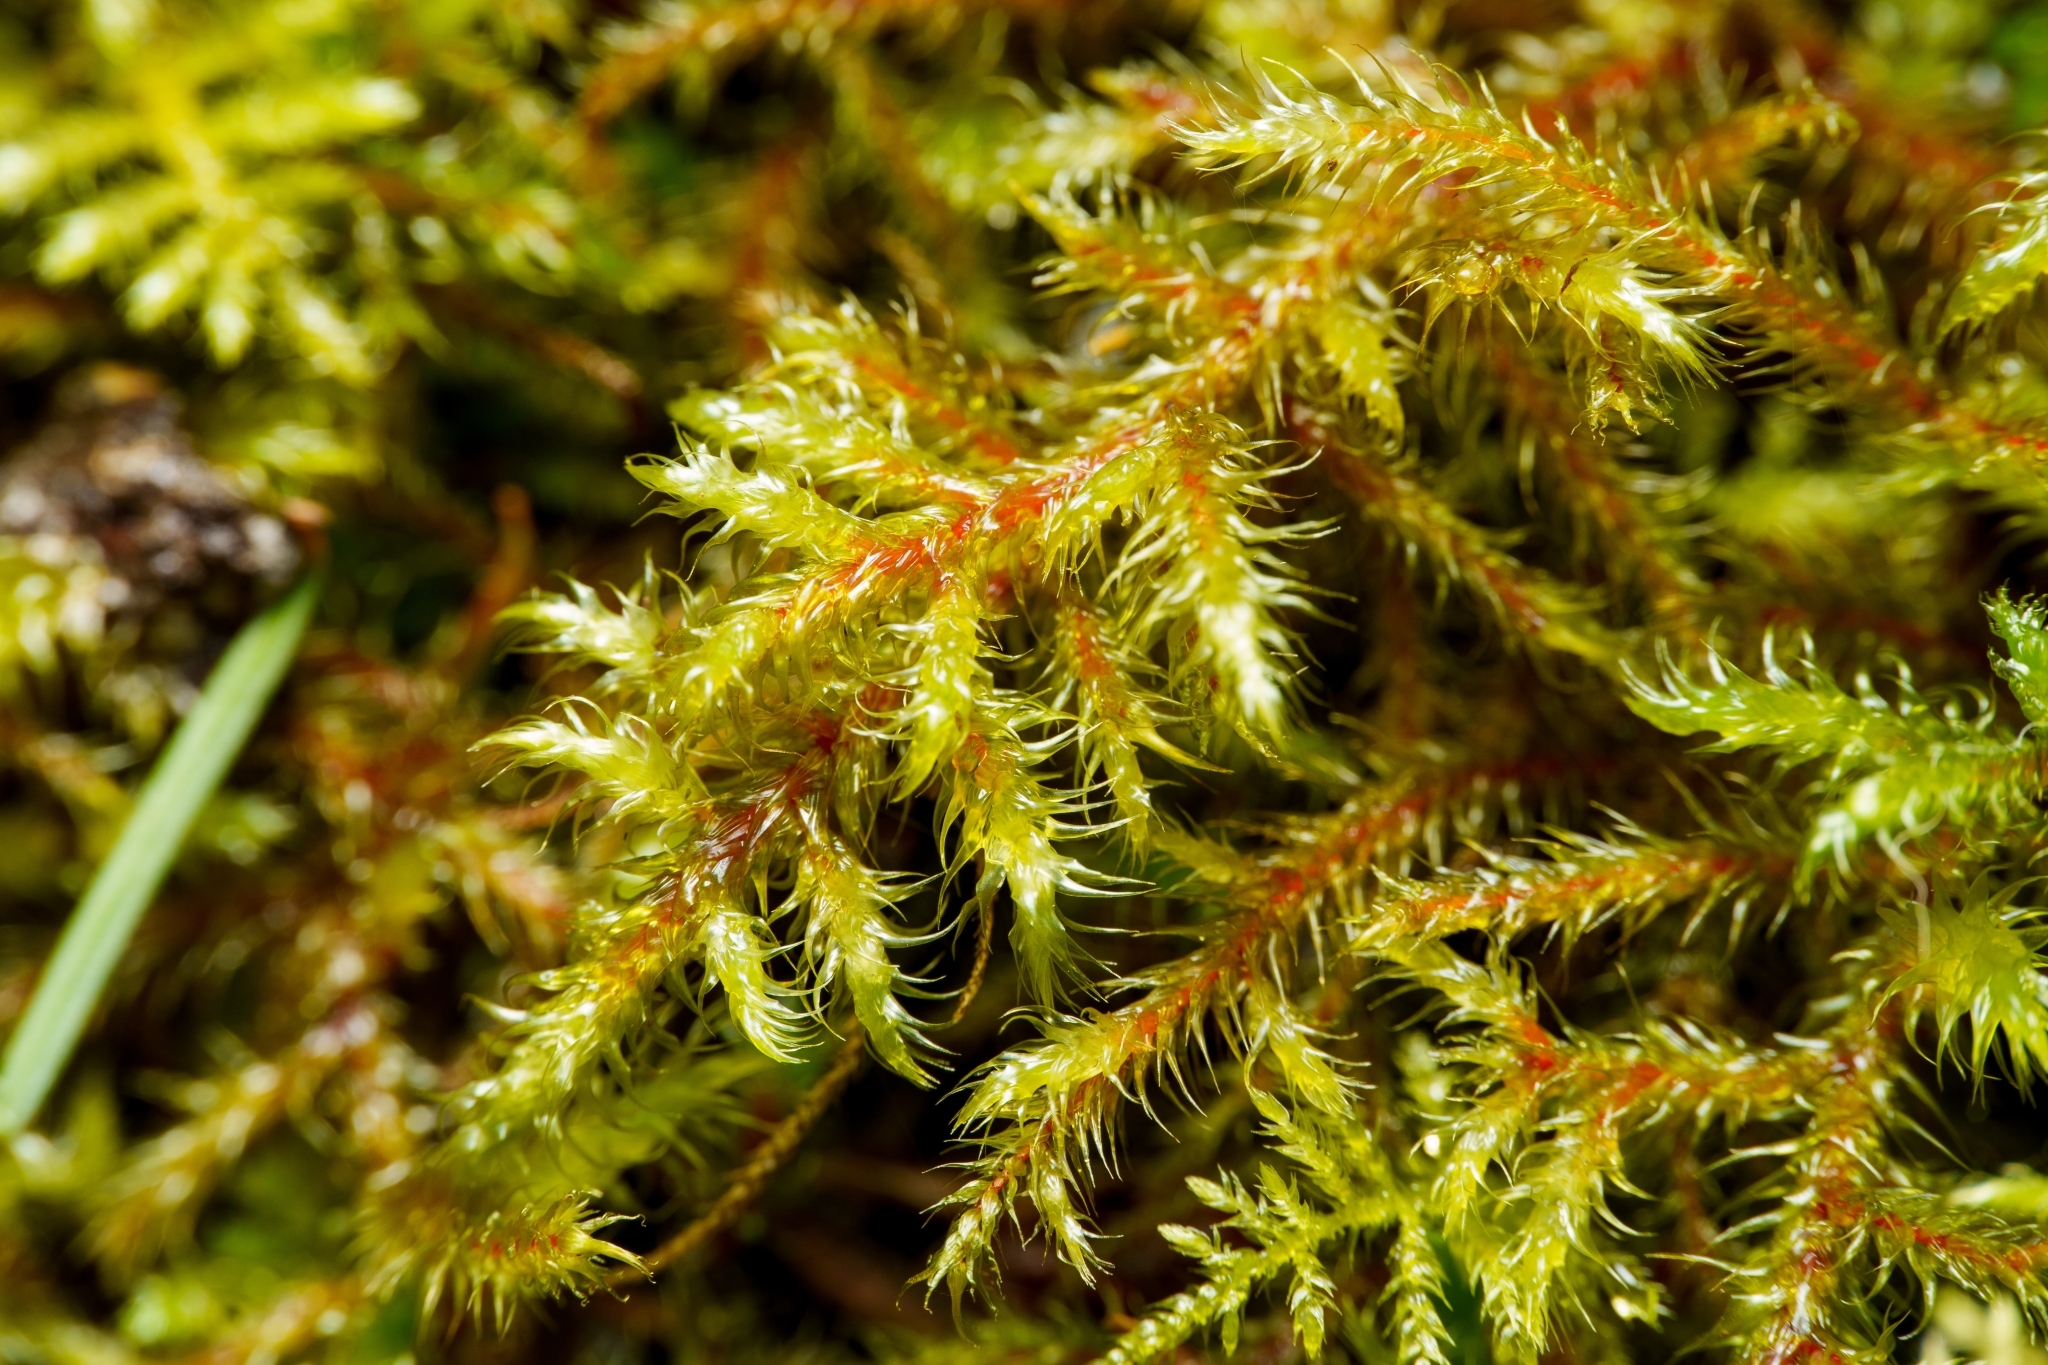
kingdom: Plantae
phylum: Bryophyta
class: Bryopsida
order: Hypnales
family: Hylocomiaceae
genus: Rhytidiadelphus
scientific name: Rhytidiadelphus loreus
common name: Lanky moss
